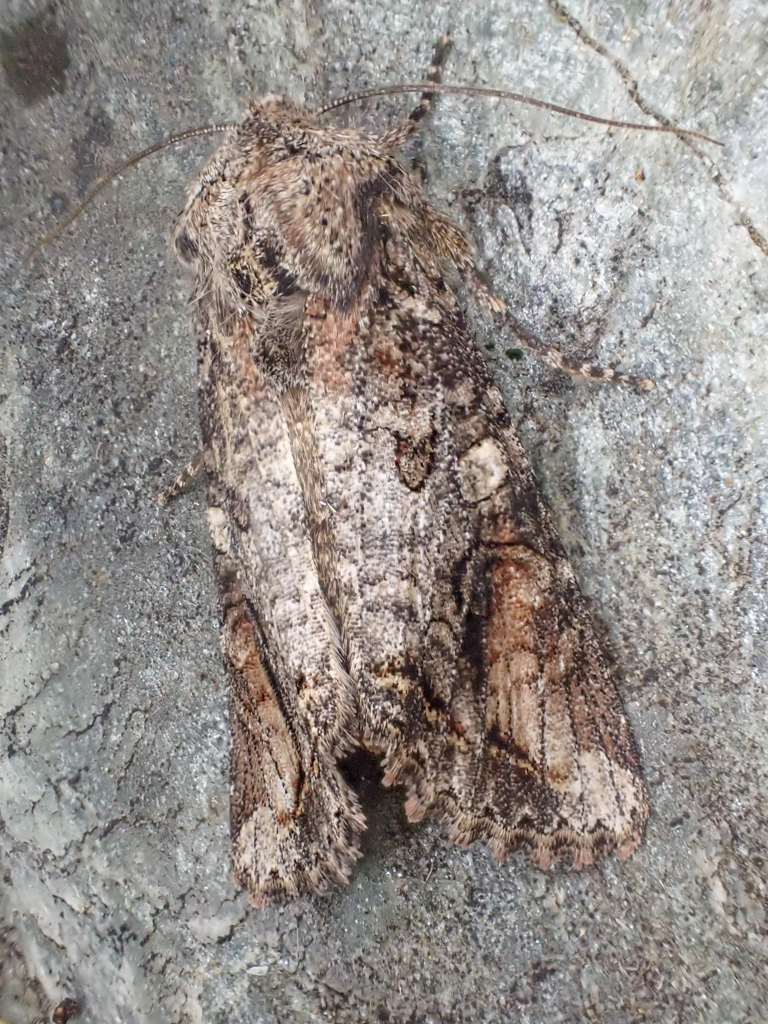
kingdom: Animalia
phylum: Arthropoda
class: Insecta
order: Lepidoptera
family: Noctuidae
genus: Egira
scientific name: Egira perlubens
